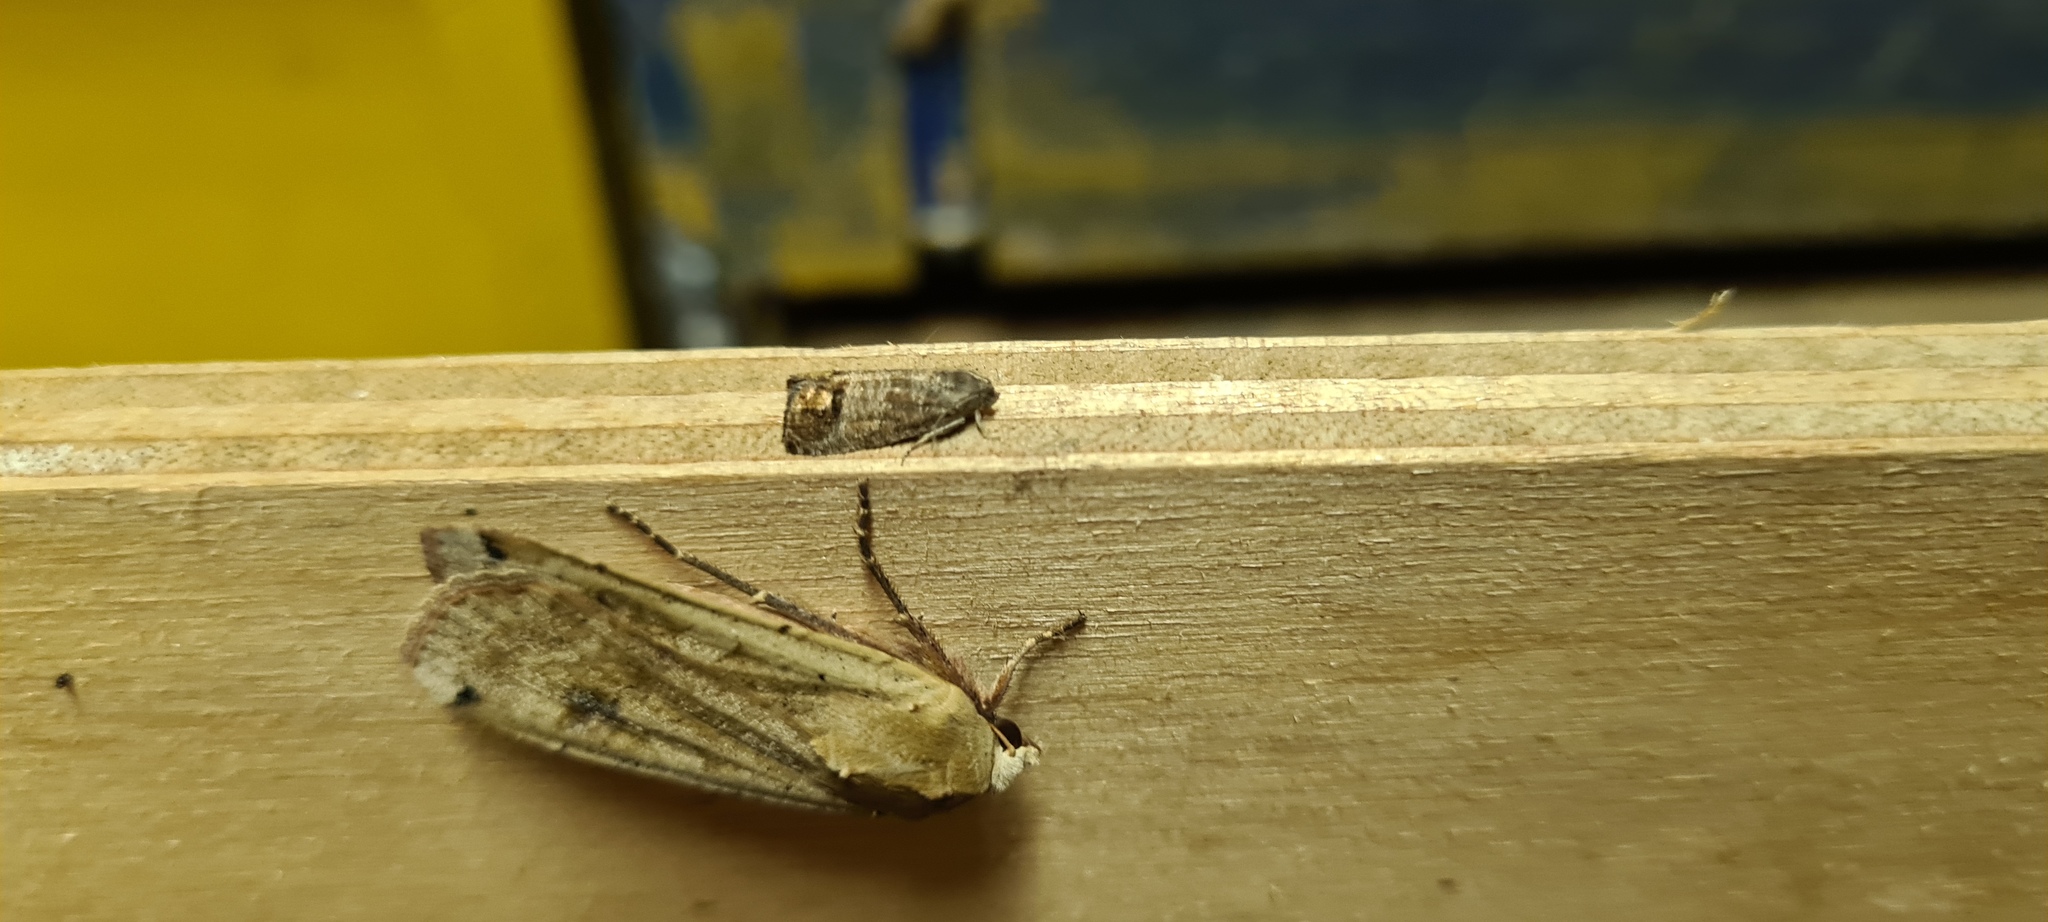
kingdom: Animalia
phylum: Arthropoda
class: Insecta
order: Lepidoptera
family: Tortricidae
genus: Cydia
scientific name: Cydia pomonella
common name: Codling moth
